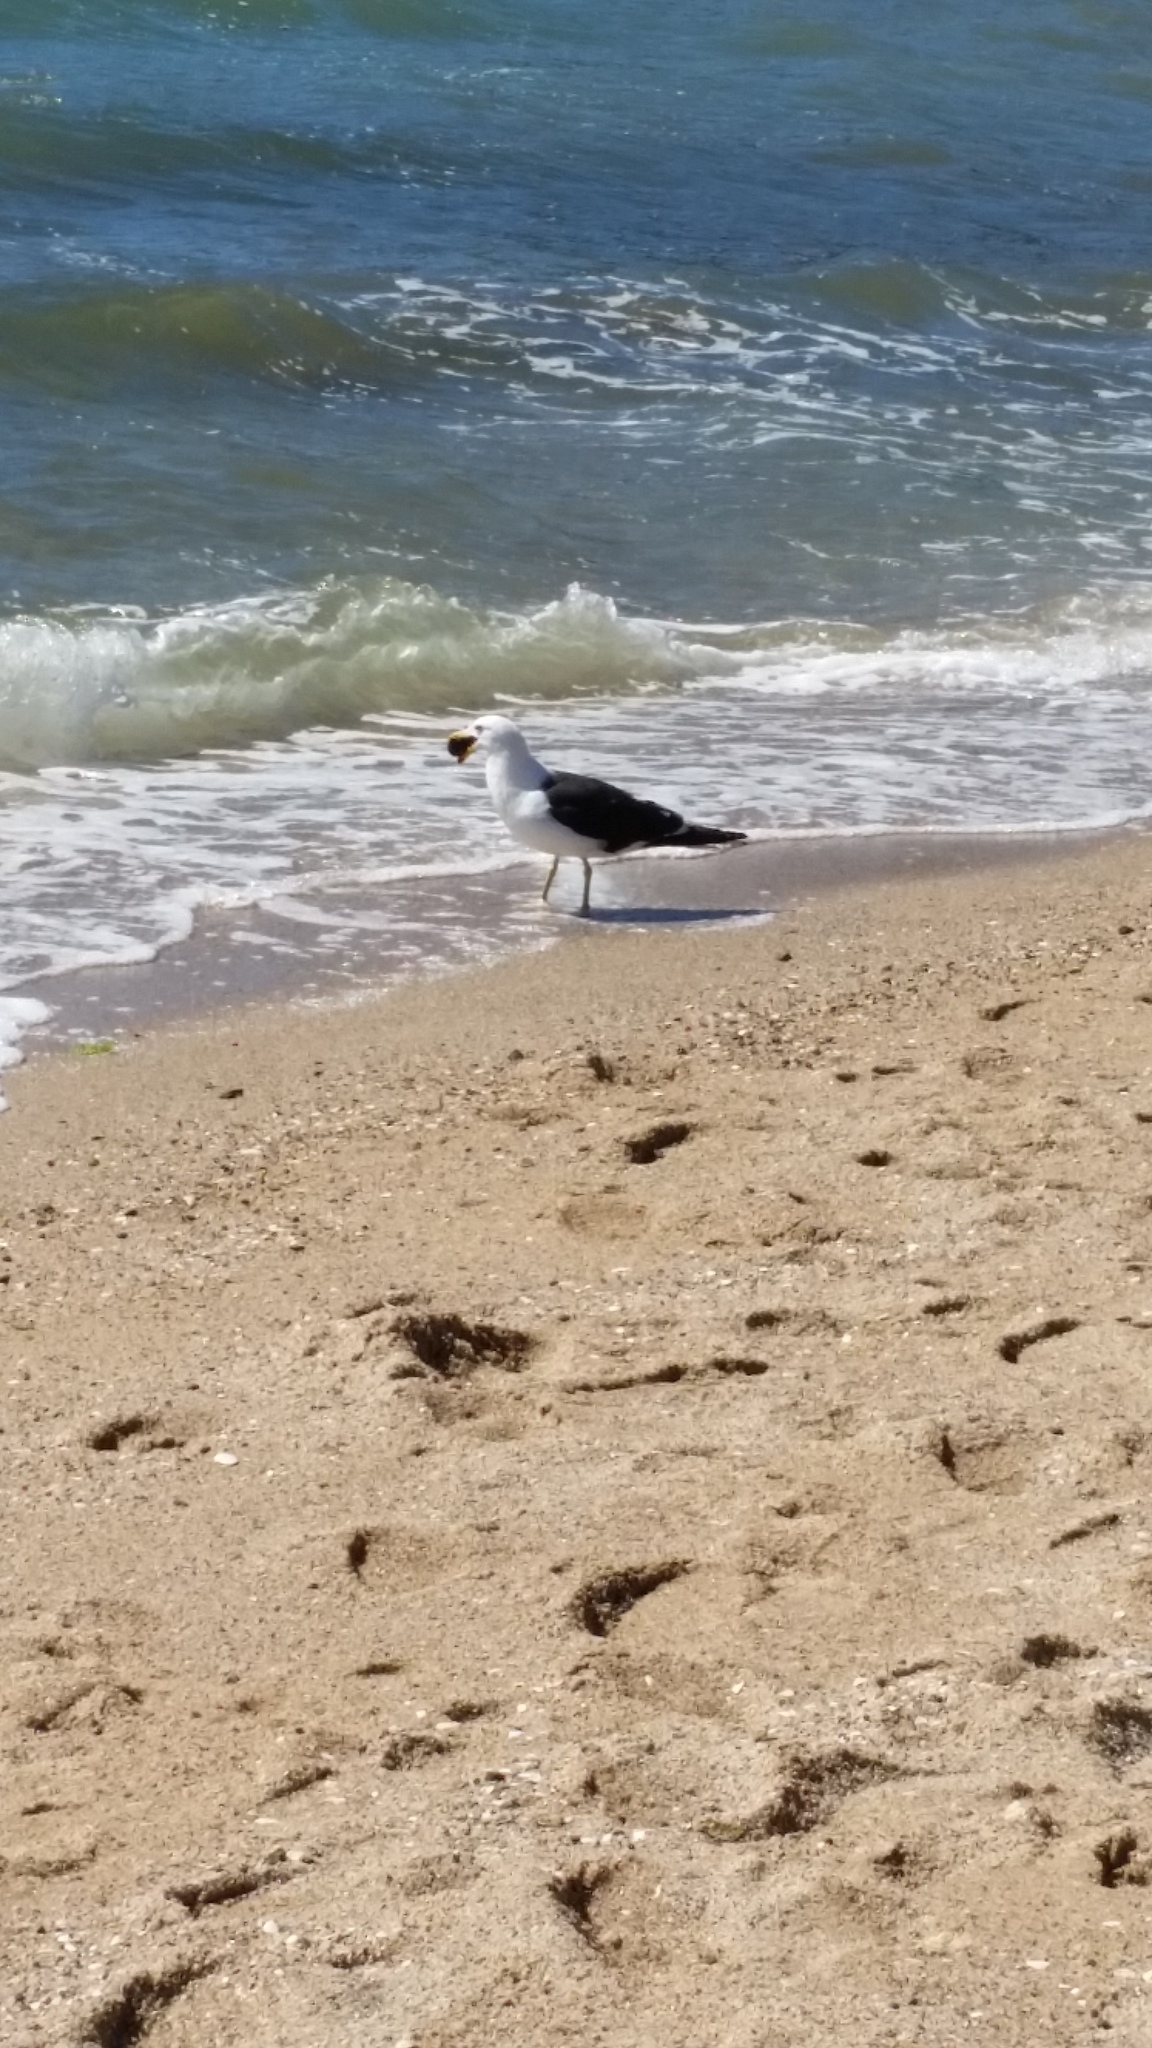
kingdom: Animalia
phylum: Chordata
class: Aves
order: Charadriiformes
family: Laridae
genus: Larus
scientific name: Larus dominicanus
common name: Kelp gull
